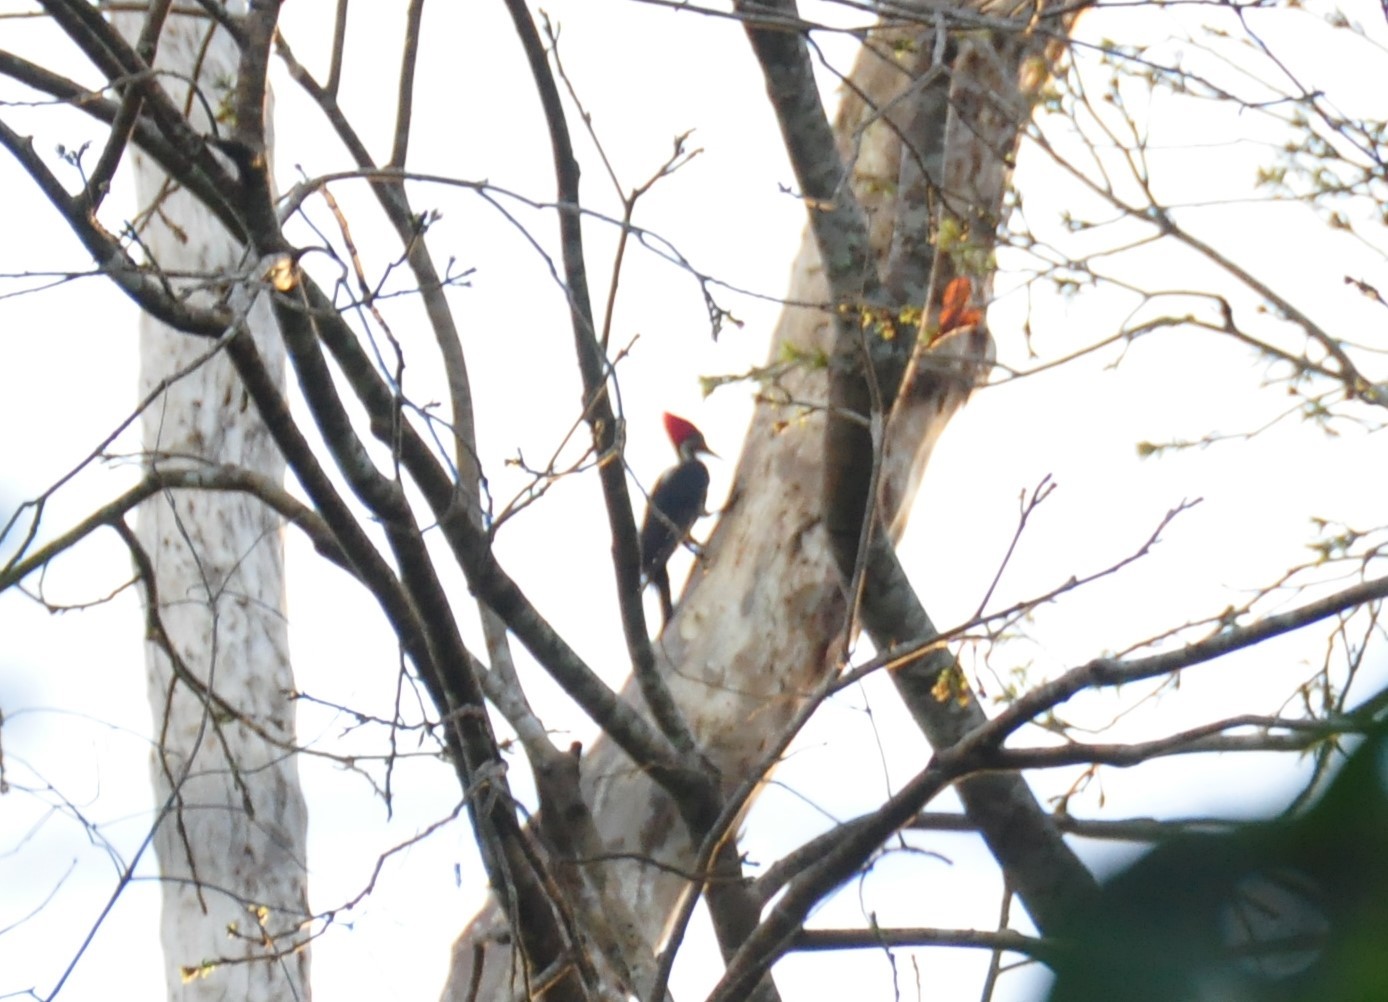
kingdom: Animalia
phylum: Chordata
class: Aves
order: Piciformes
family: Picidae
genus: Dryocopus
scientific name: Dryocopus lineatus
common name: Lineated woodpecker
